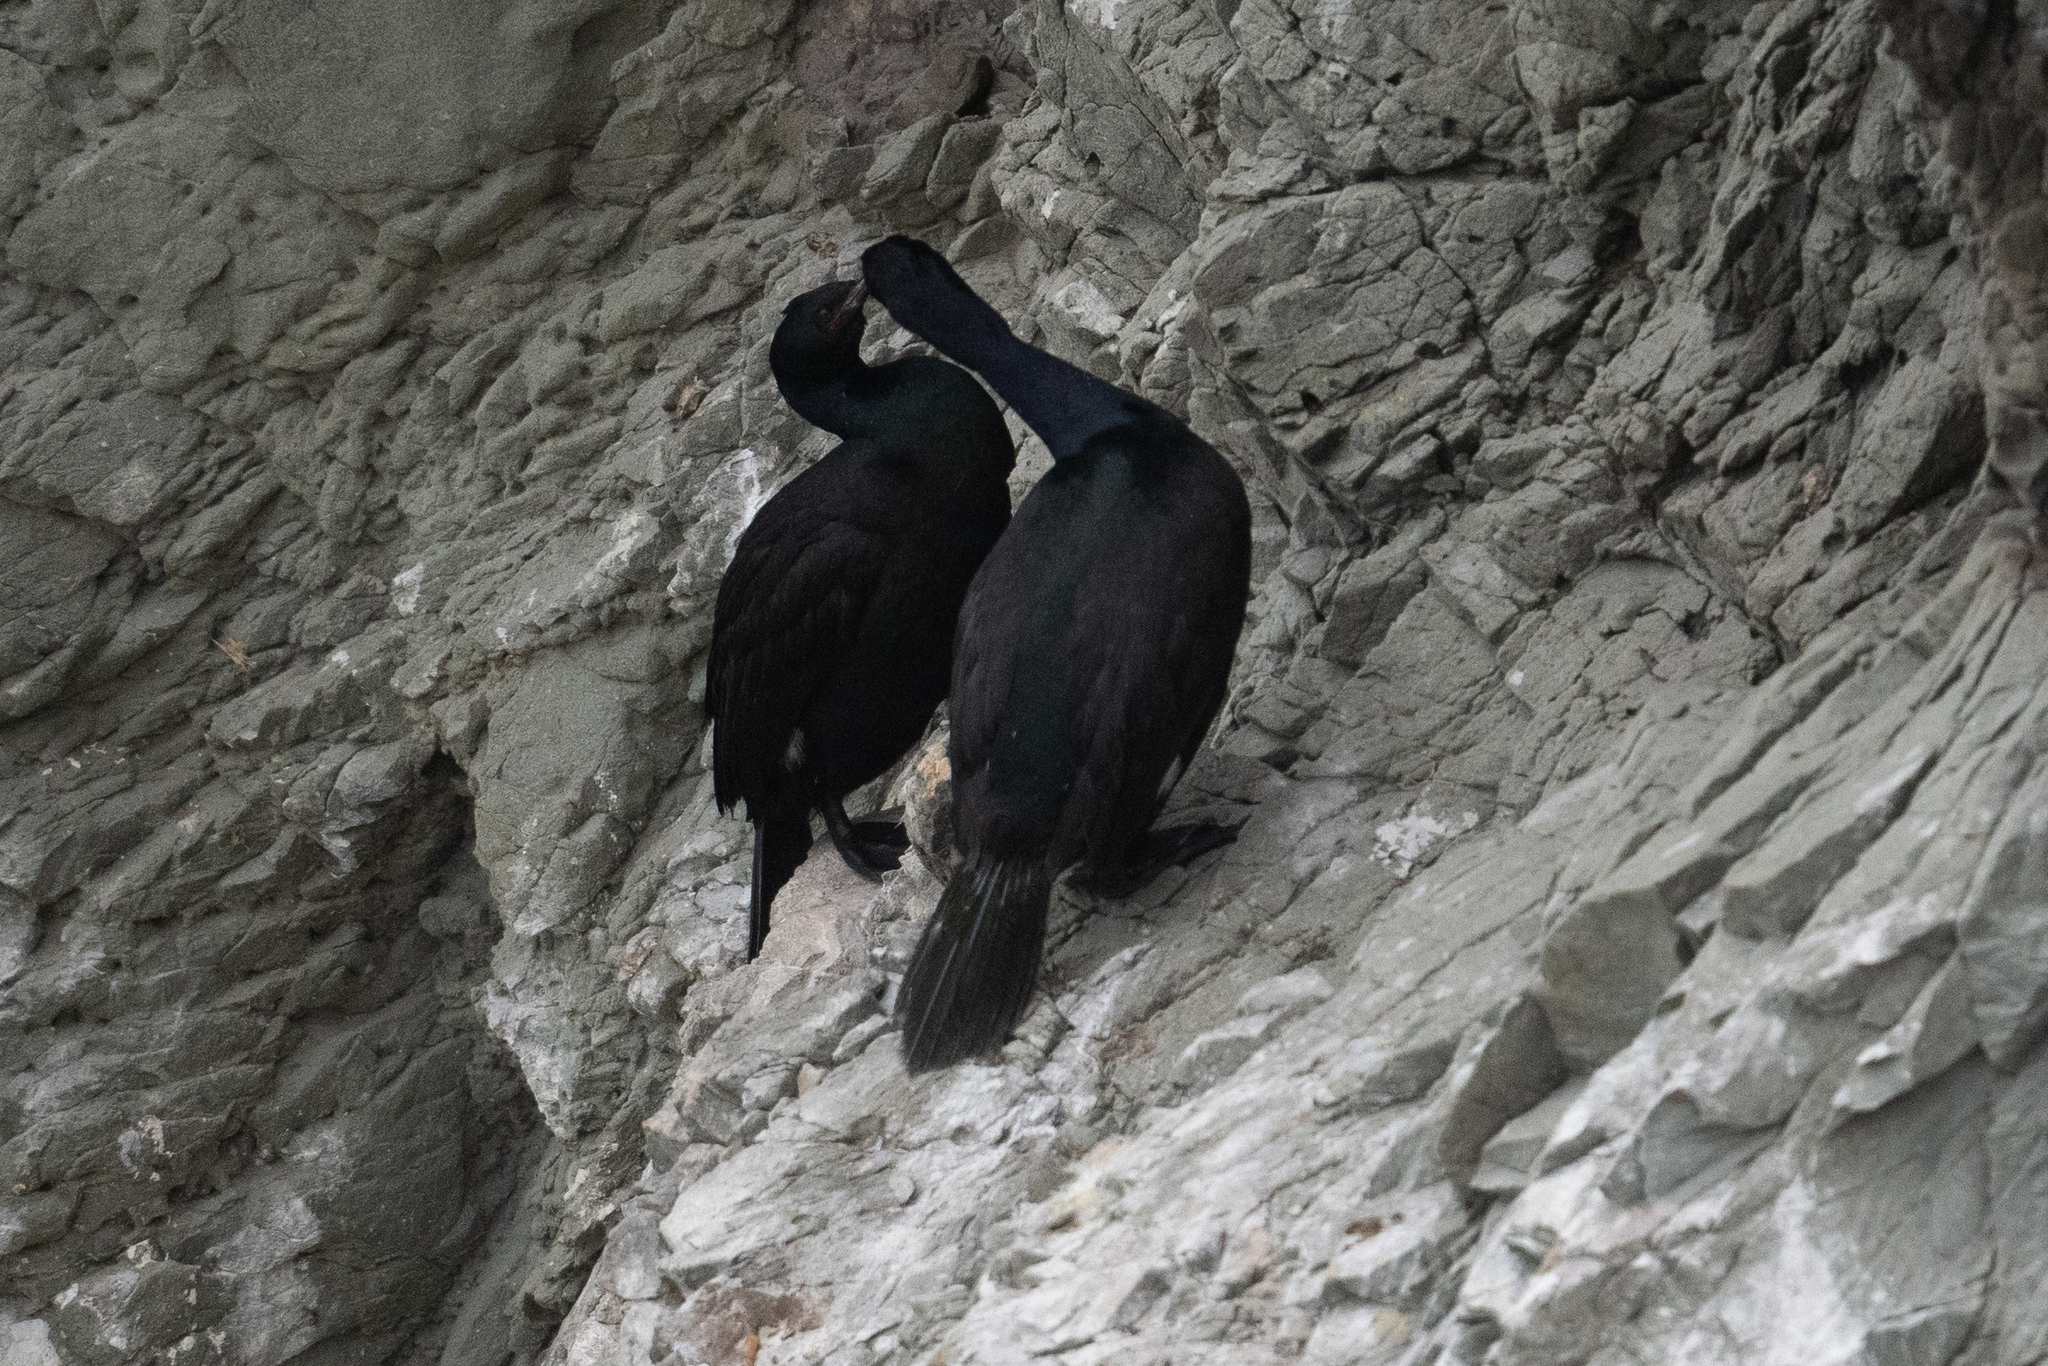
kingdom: Animalia
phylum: Chordata
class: Aves
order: Suliformes
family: Phalacrocoracidae
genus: Phalacrocorax
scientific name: Phalacrocorax pelagicus
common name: Pelagic cormorant
